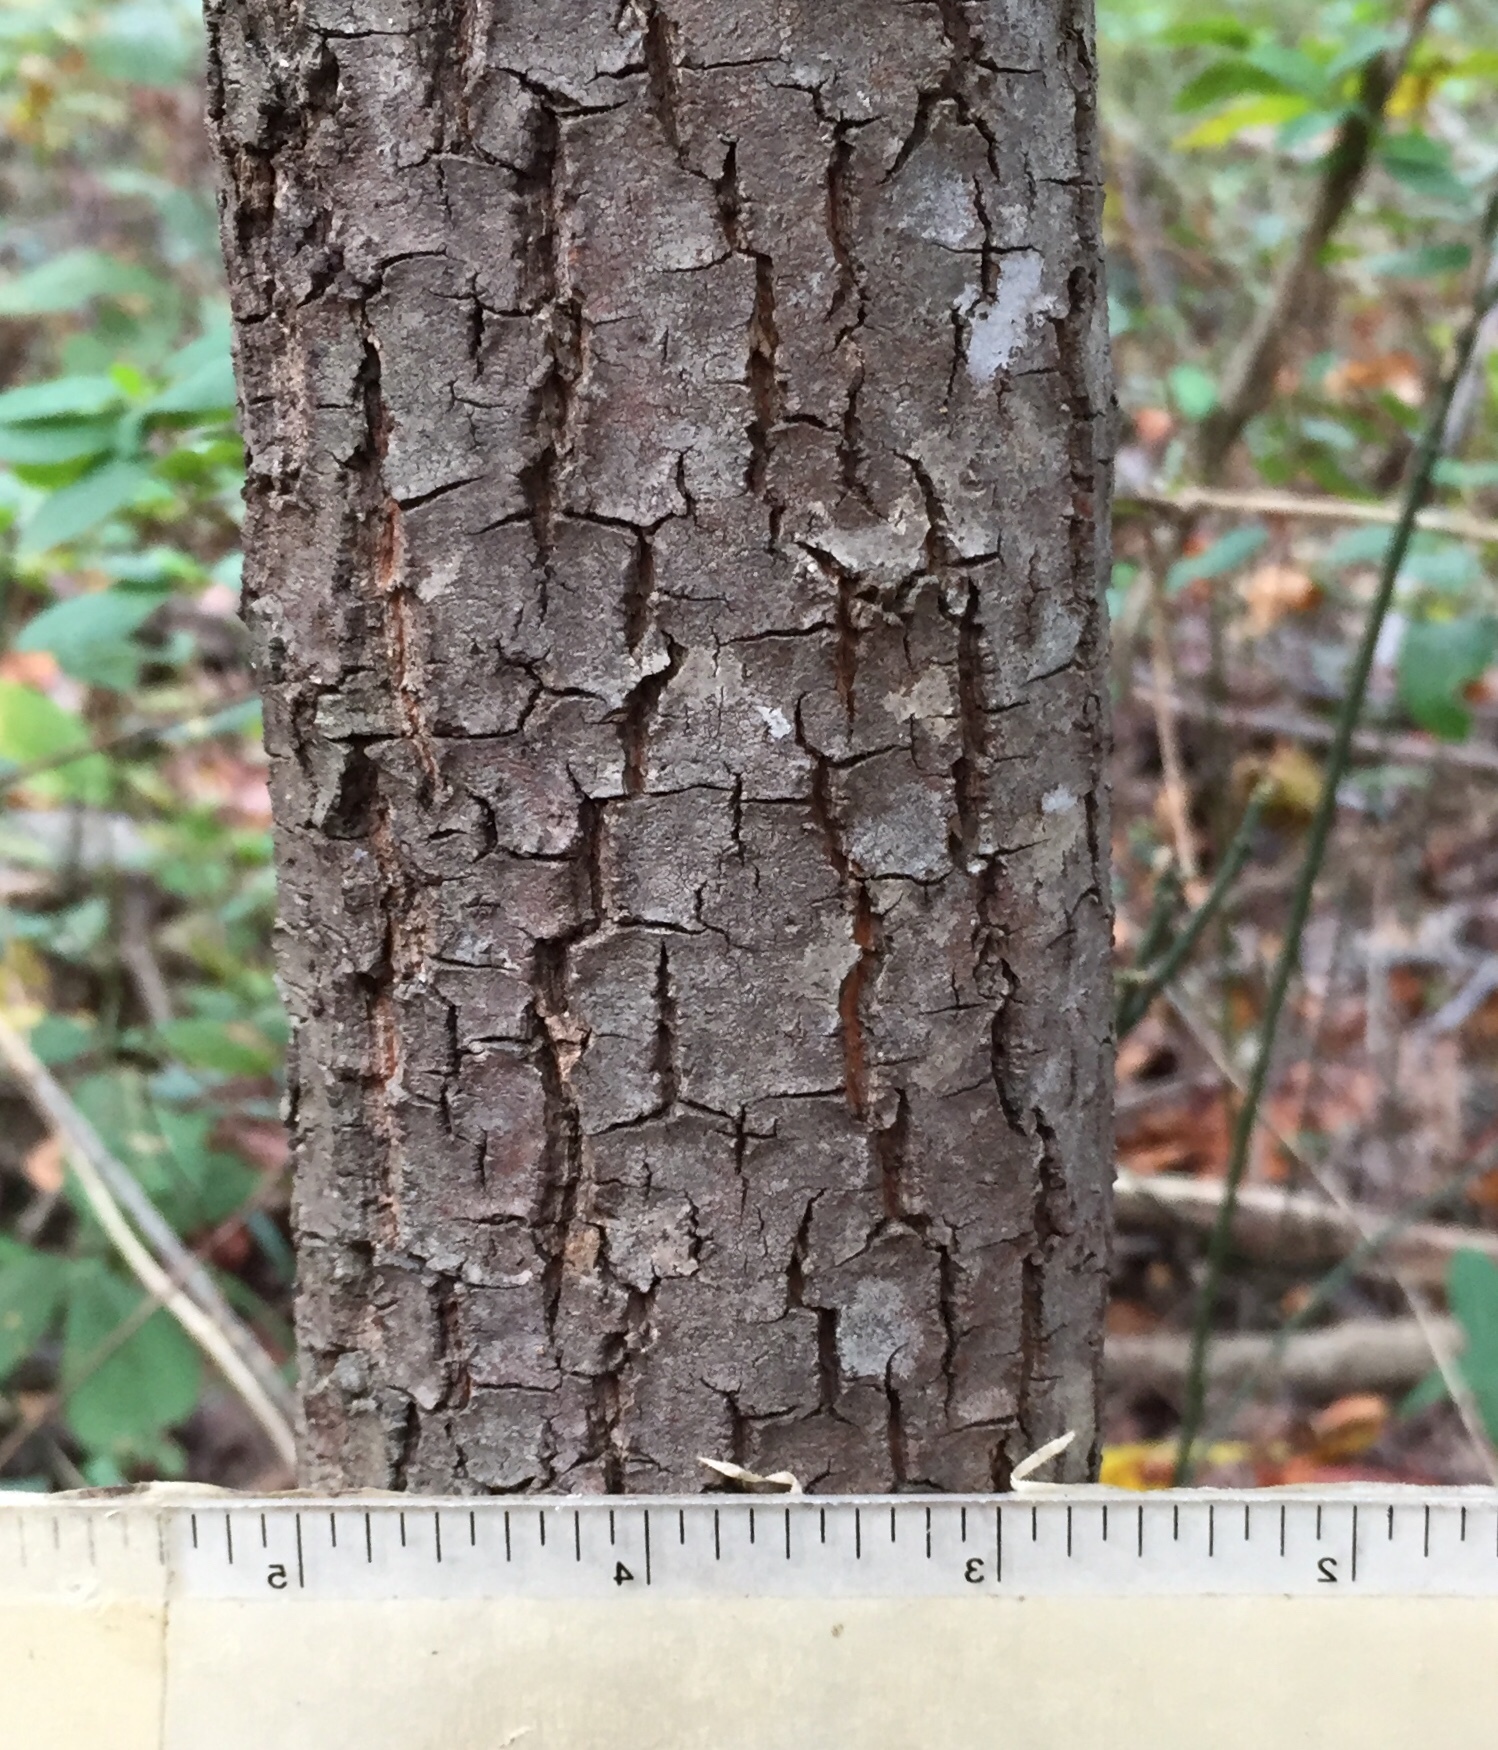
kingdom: Plantae
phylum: Tracheophyta
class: Magnoliopsida
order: Ericales
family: Ericaceae
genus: Oxydendrum
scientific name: Oxydendrum arboreum
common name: Sourwood
